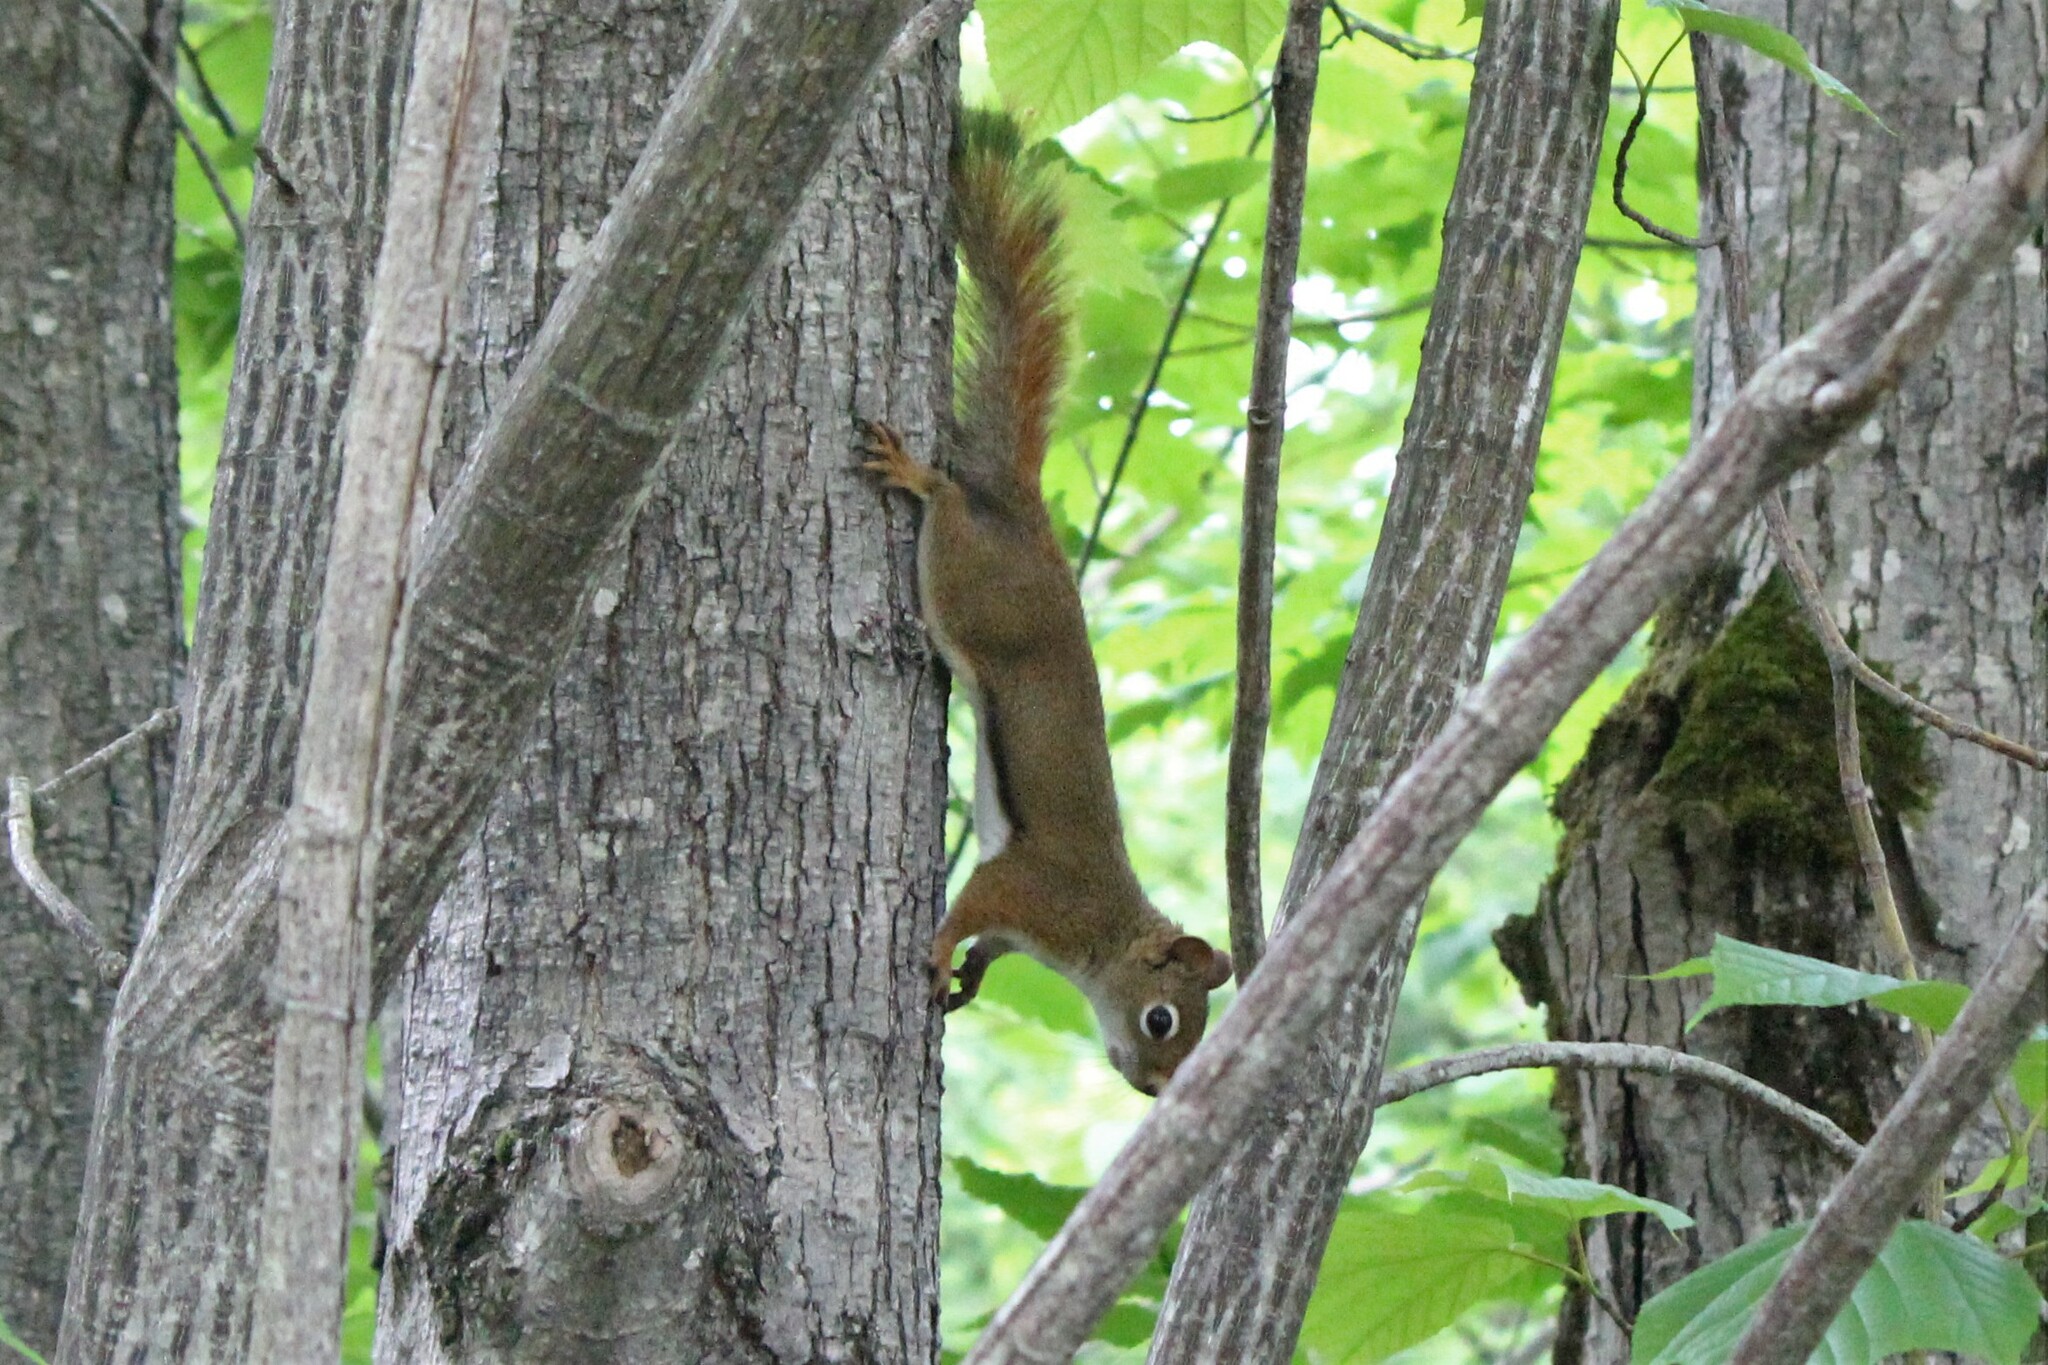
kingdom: Animalia
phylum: Chordata
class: Mammalia
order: Rodentia
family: Sciuridae
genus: Tamiasciurus
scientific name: Tamiasciurus hudsonicus
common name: Red squirrel
